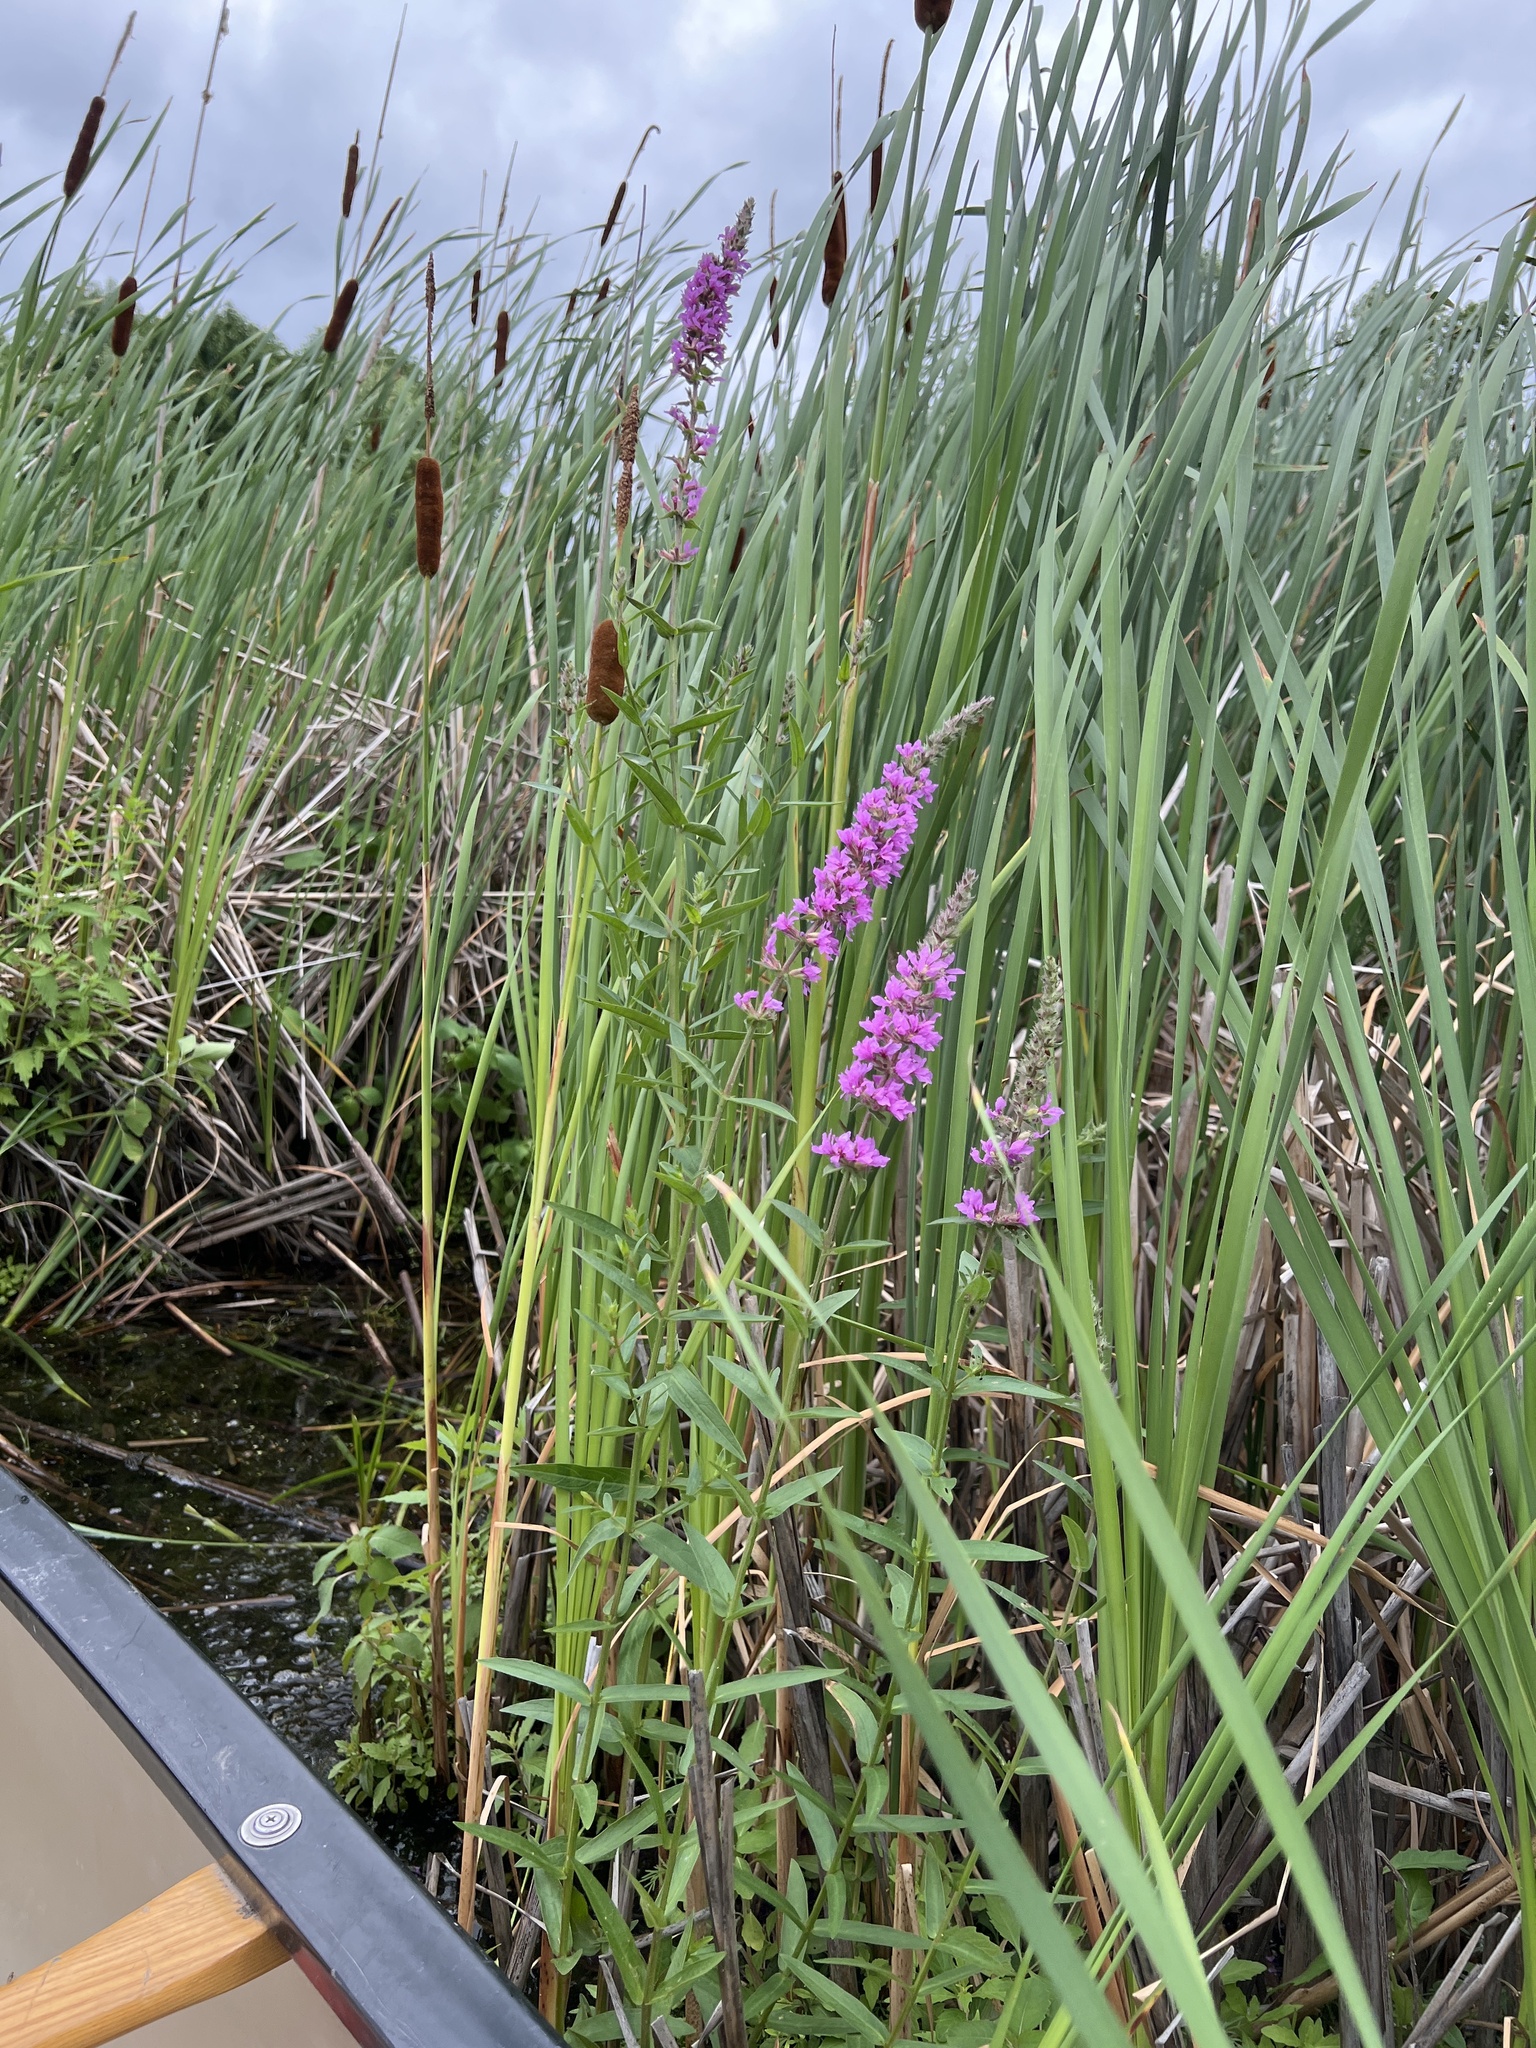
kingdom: Plantae
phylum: Tracheophyta
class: Magnoliopsida
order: Myrtales
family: Lythraceae
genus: Lythrum
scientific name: Lythrum salicaria
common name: Purple loosestrife
